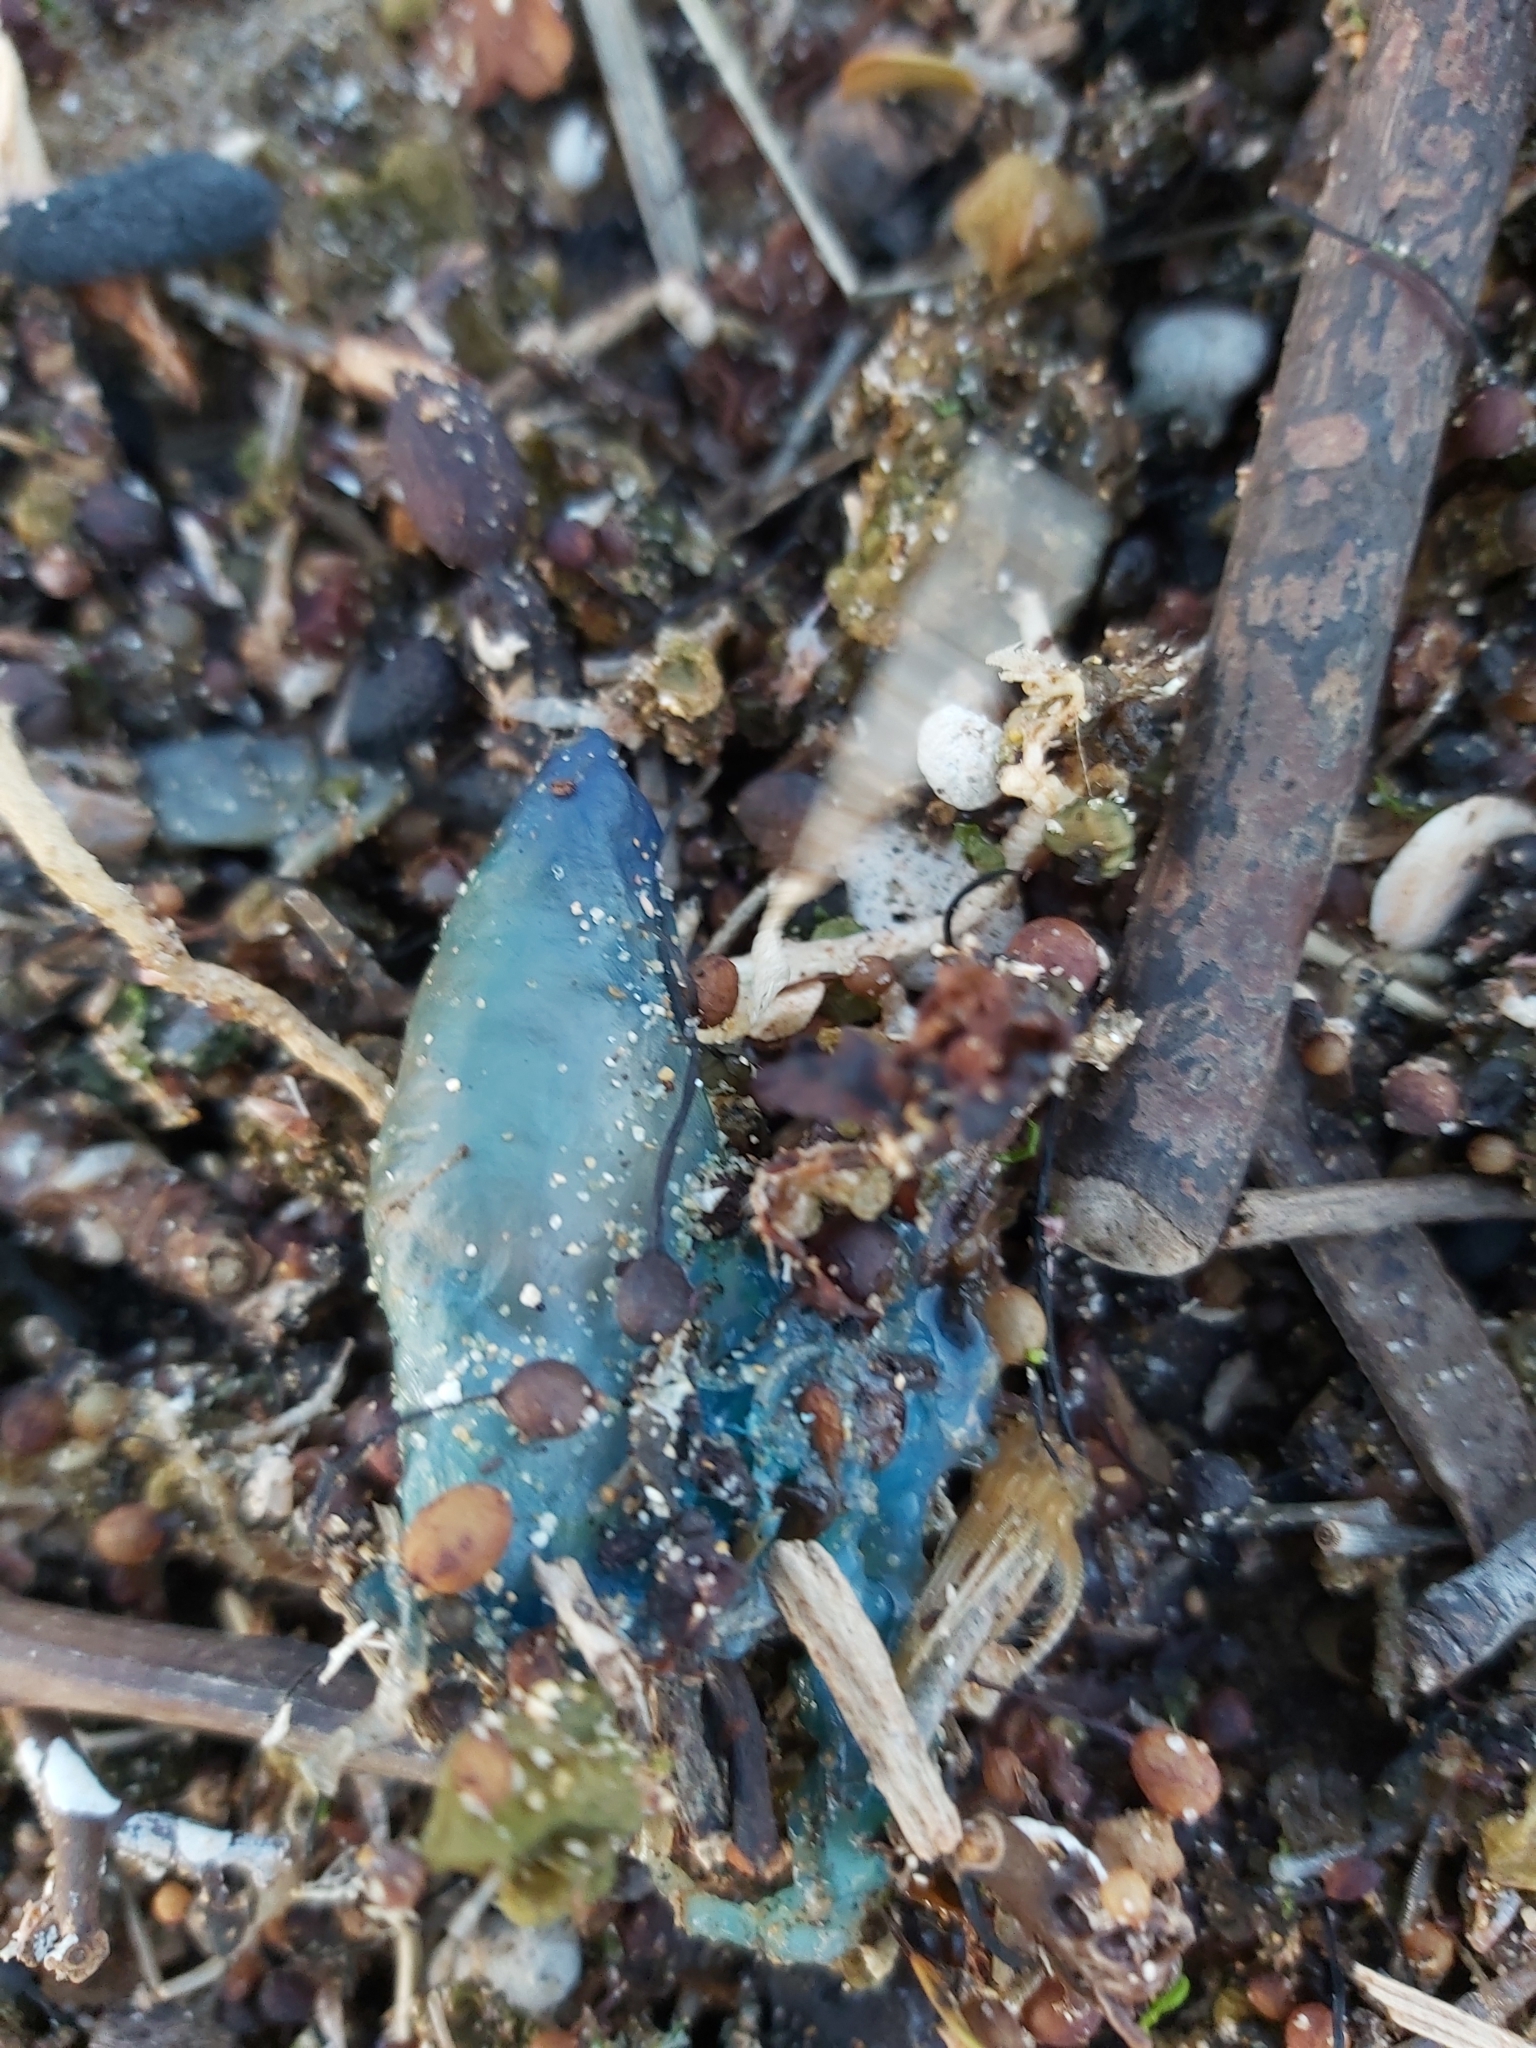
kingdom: Animalia
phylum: Cnidaria
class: Hydrozoa
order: Siphonophorae
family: Physaliidae
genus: Physalia
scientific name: Physalia physalis
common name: Portuguese man-of-war
